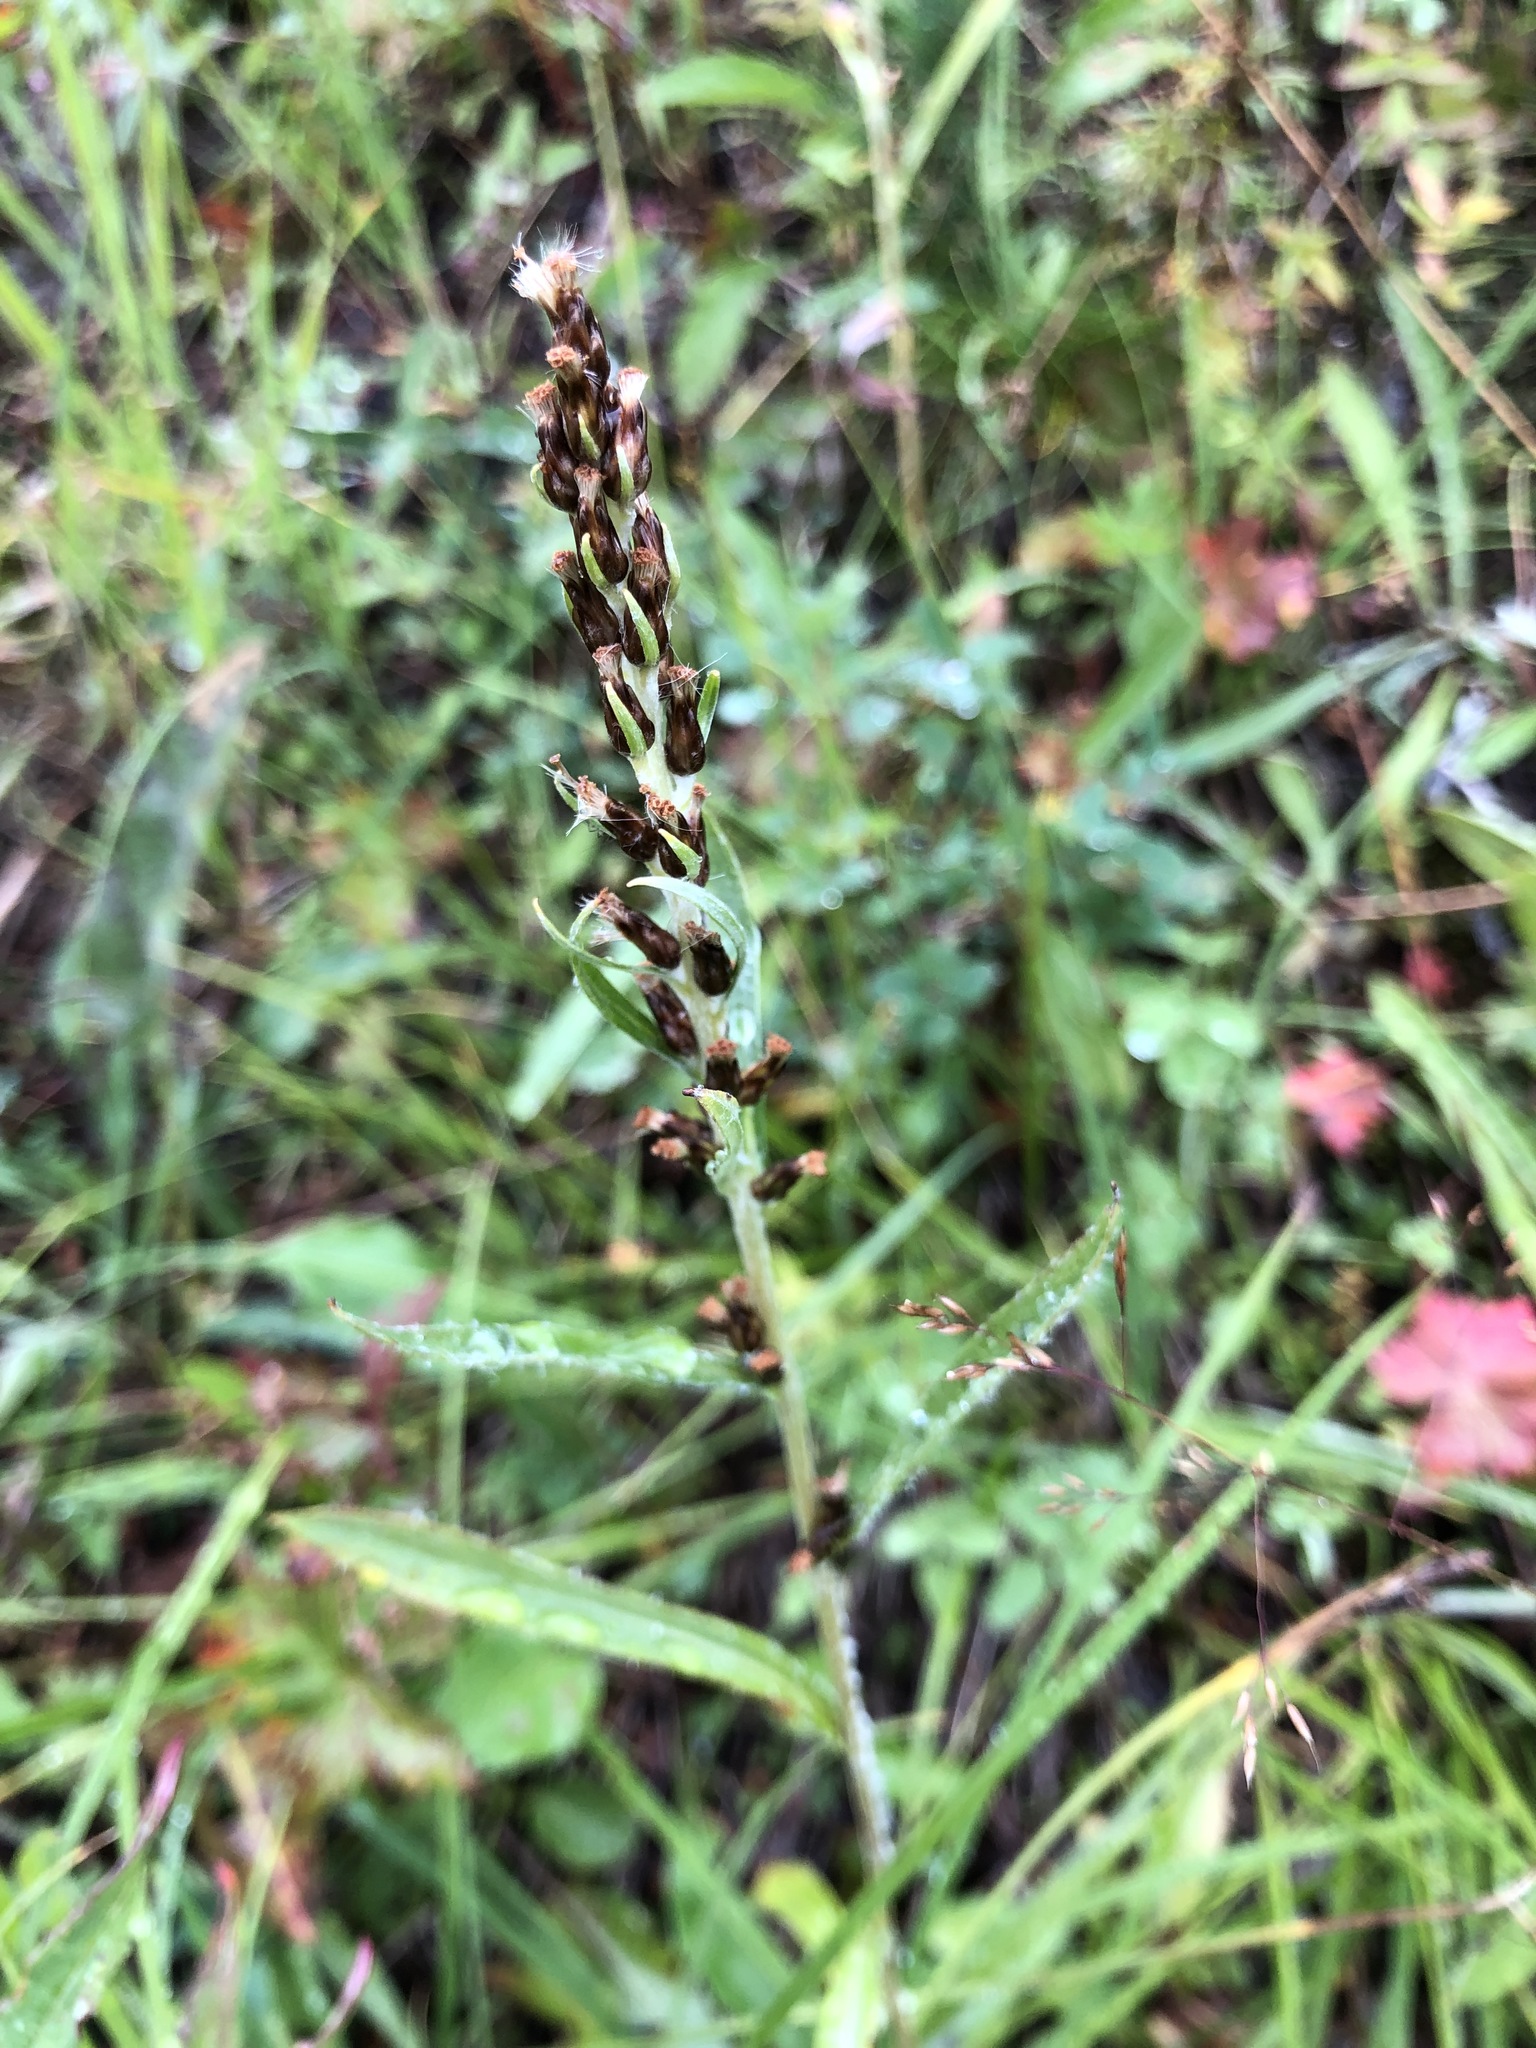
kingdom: Plantae
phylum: Tracheophyta
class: Magnoliopsida
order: Asterales
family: Asteraceae
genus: Omalotheca
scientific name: Omalotheca norvegica
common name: Norwegian arctic-cudweed
